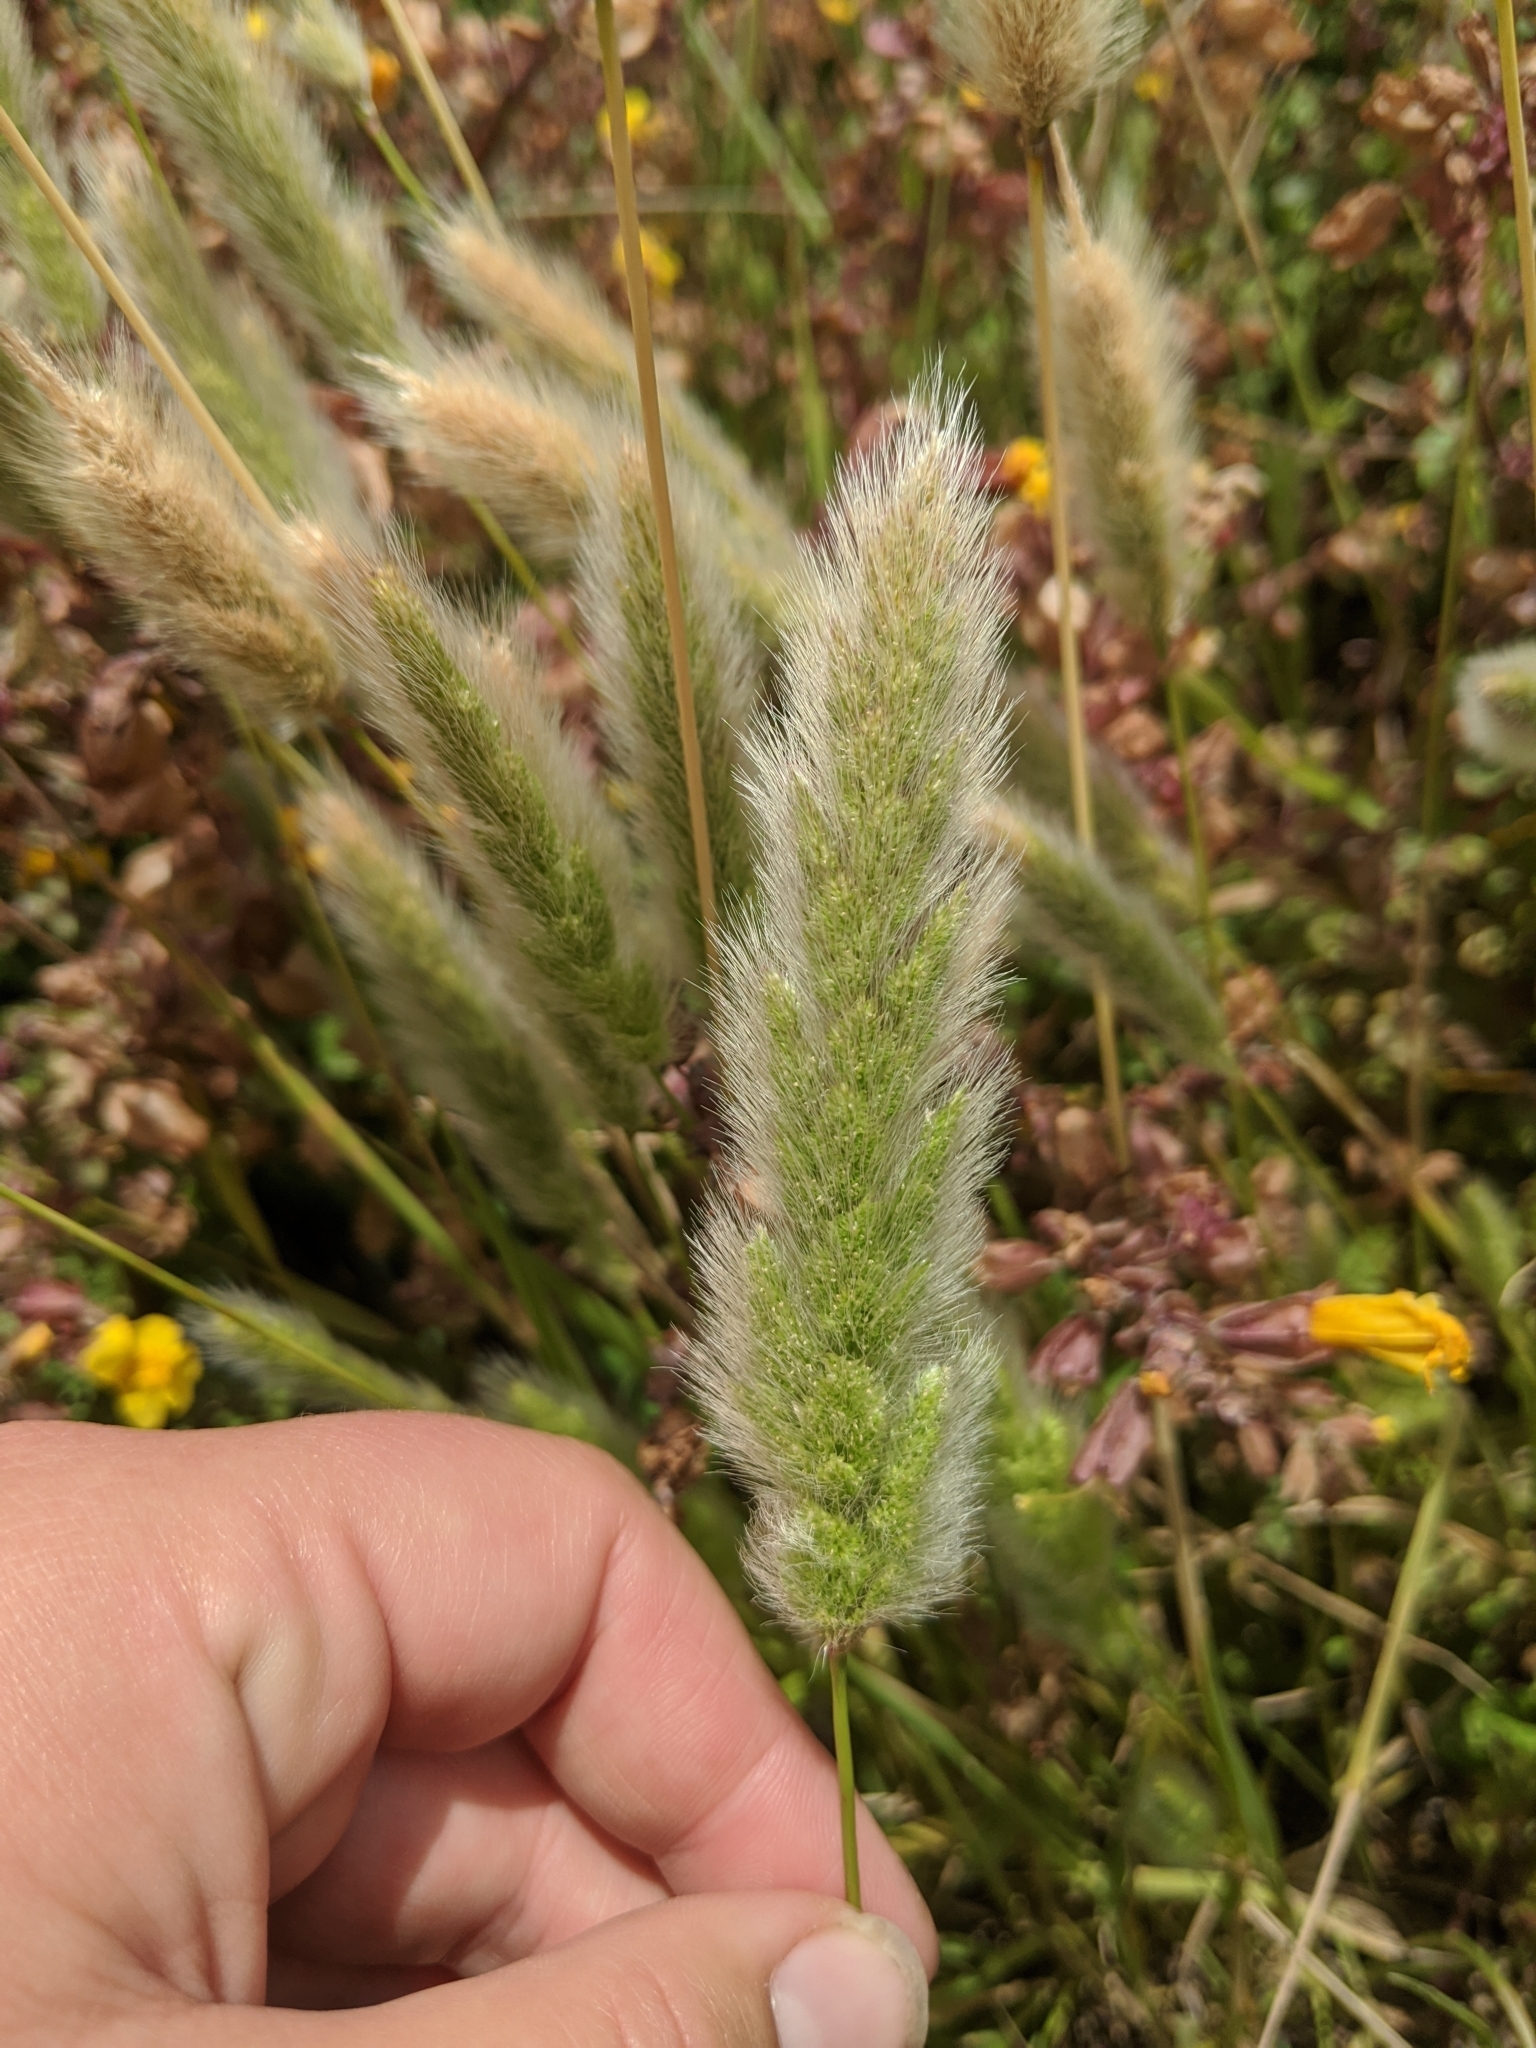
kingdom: Plantae
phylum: Tracheophyta
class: Liliopsida
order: Poales
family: Poaceae
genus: Polypogon
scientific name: Polypogon monspeliensis
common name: Annual rabbitsfoot grass
